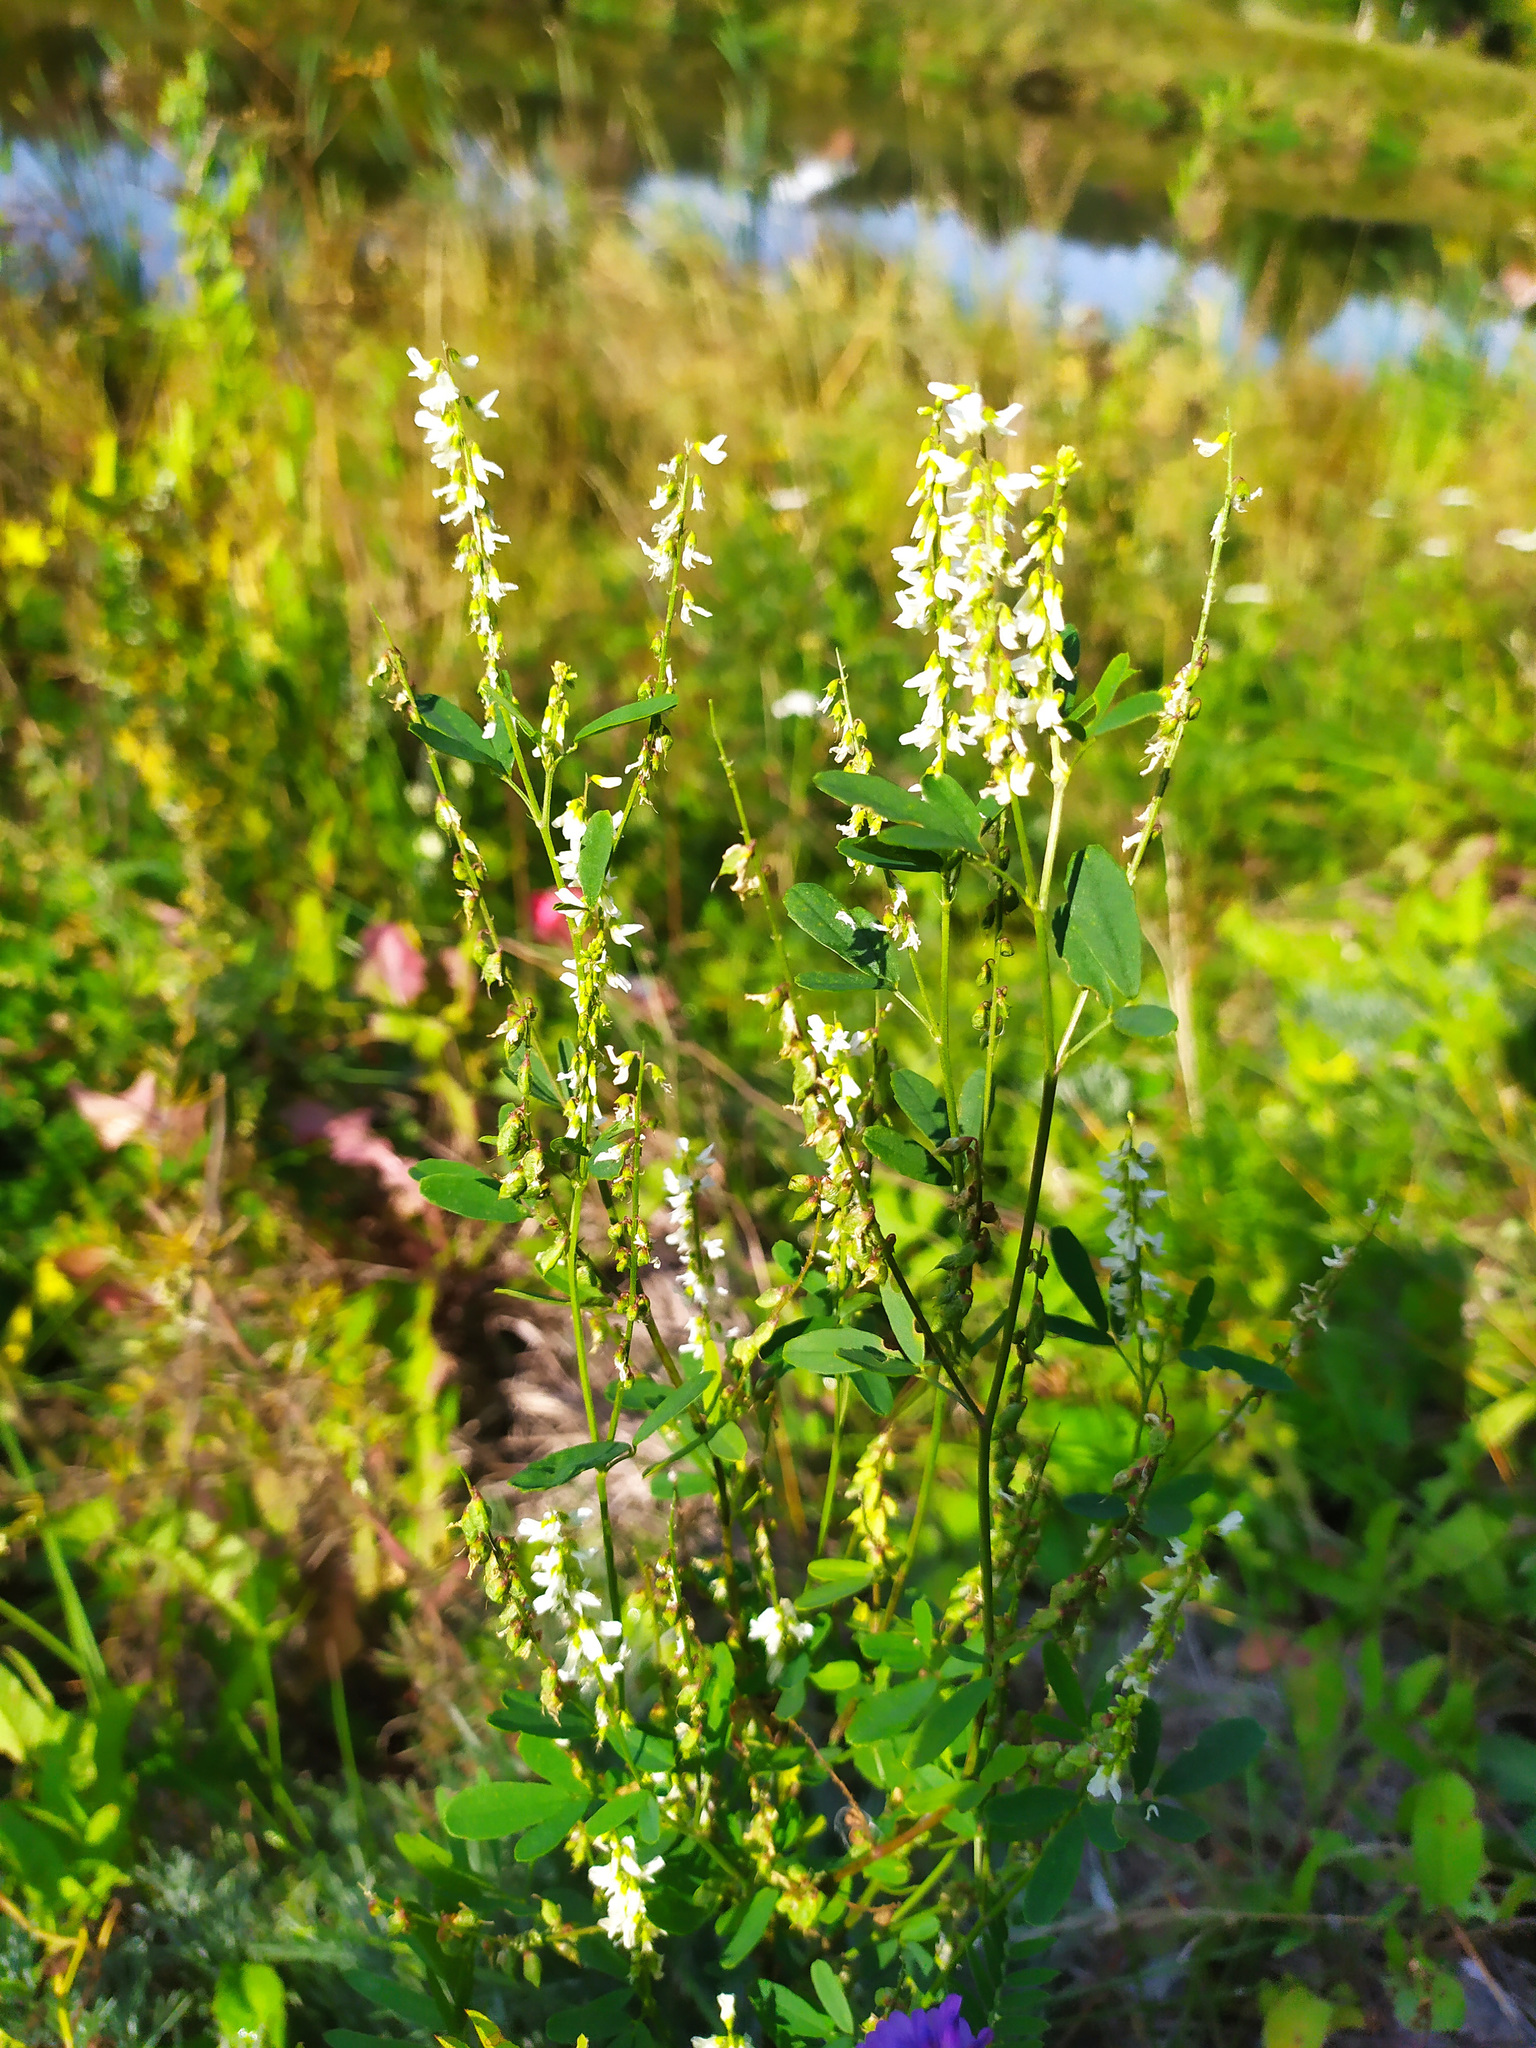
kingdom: Plantae
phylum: Tracheophyta
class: Magnoliopsida
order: Fabales
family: Fabaceae
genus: Melilotus
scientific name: Melilotus albus
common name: White melilot
